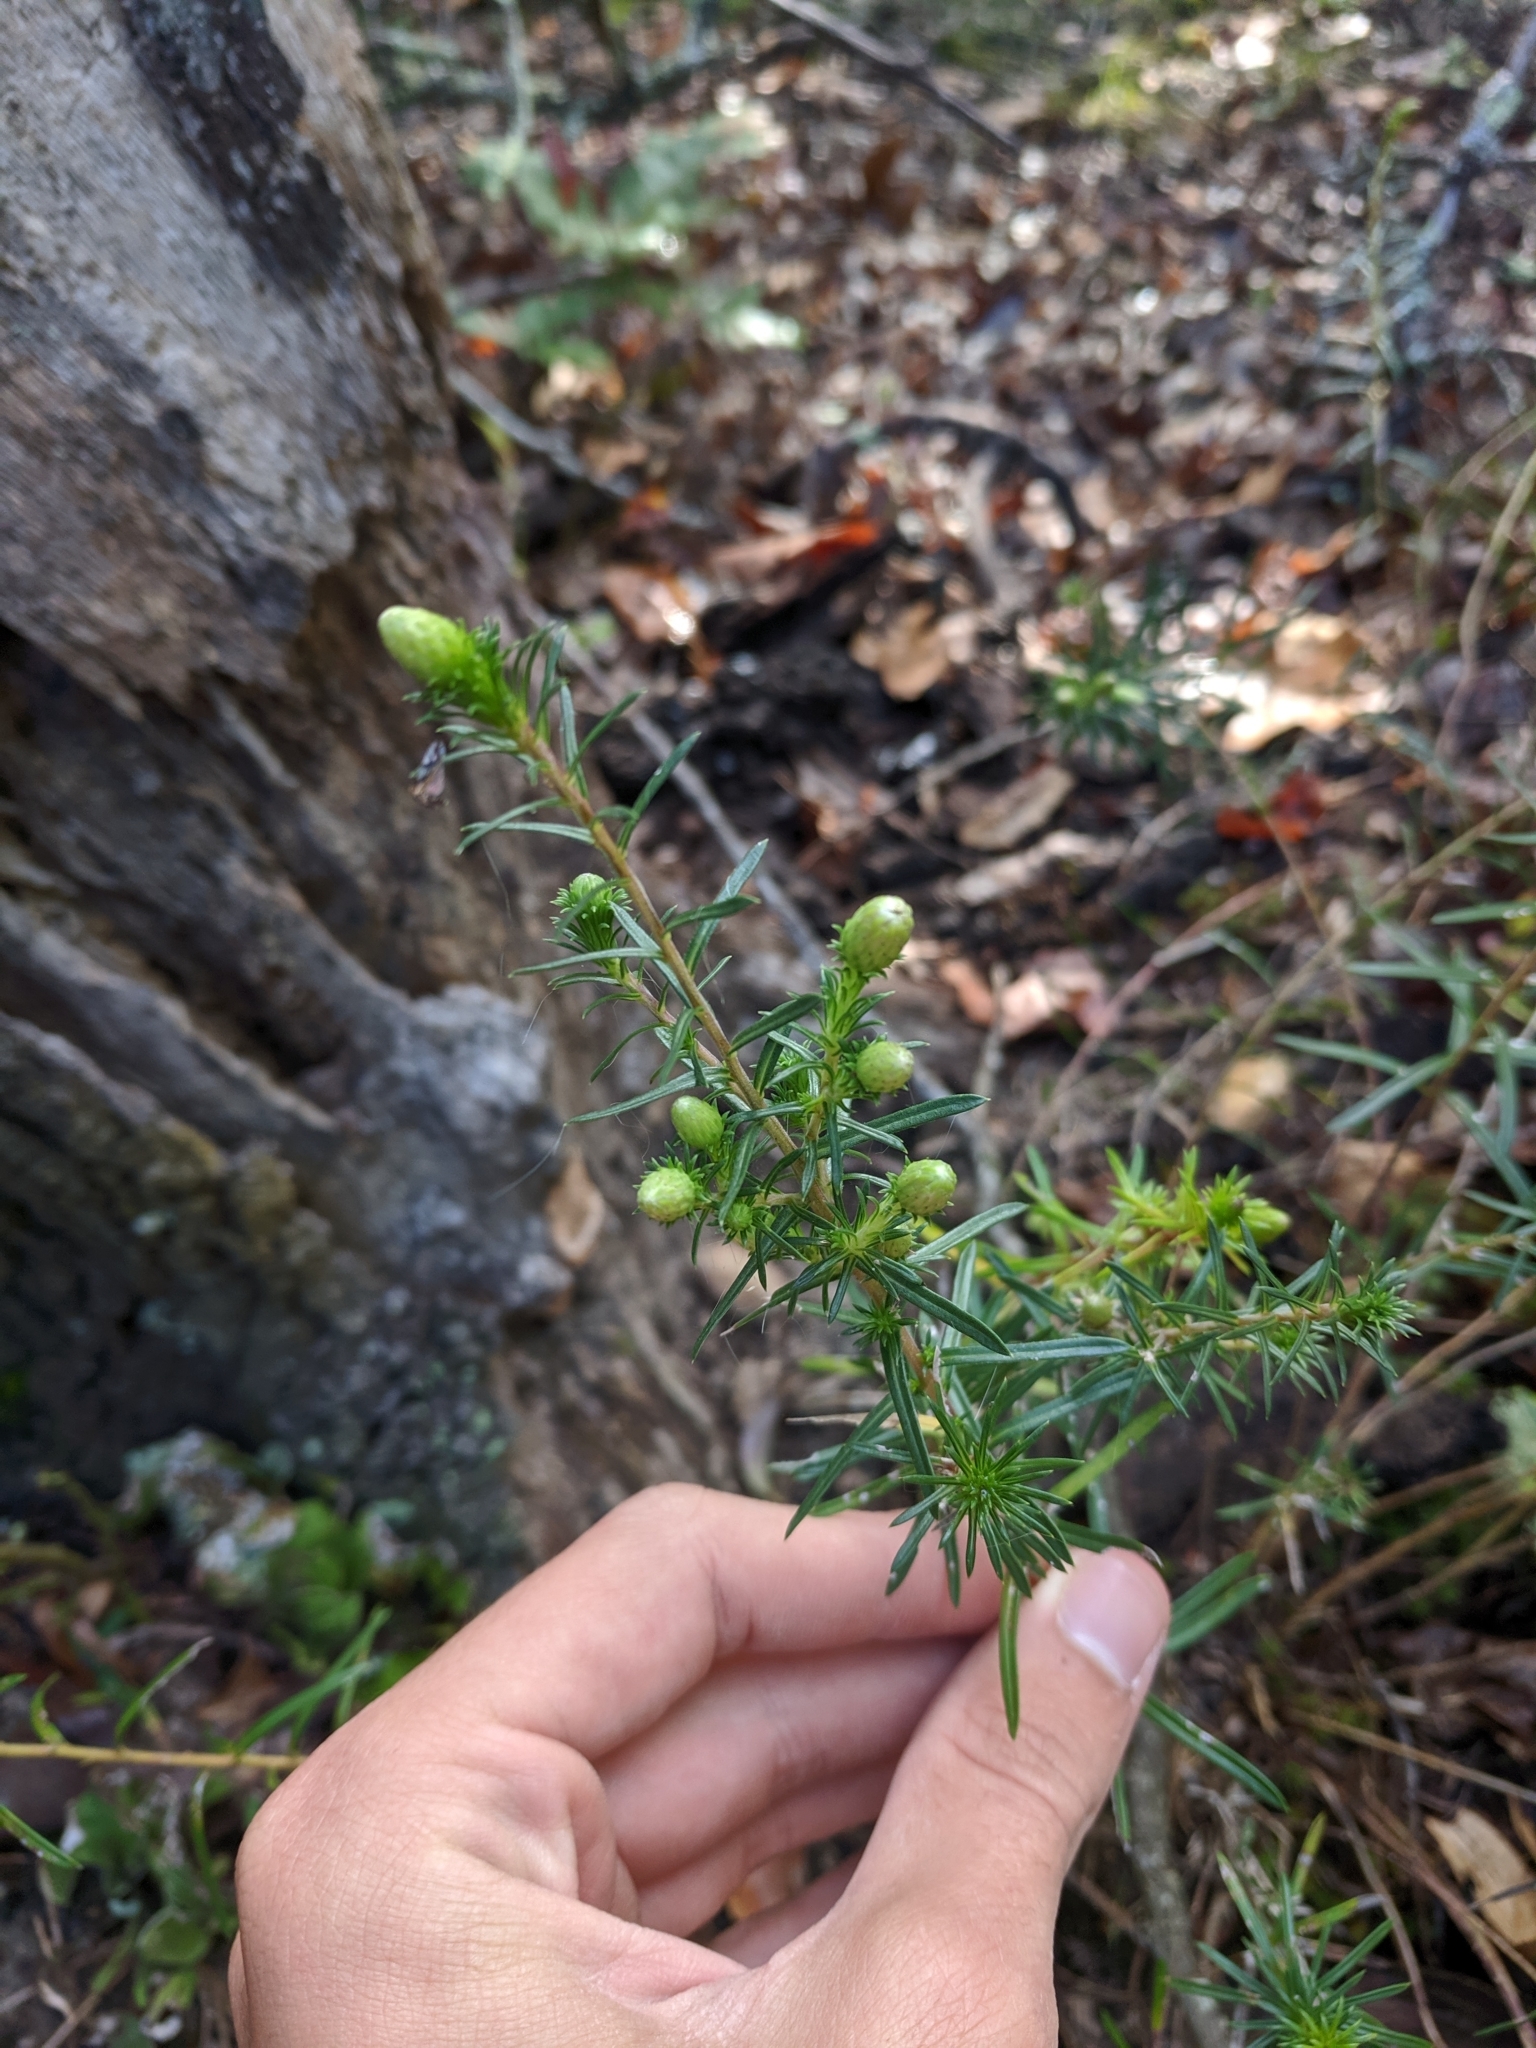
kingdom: Plantae
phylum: Tracheophyta
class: Magnoliopsida
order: Asterales
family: Asteraceae
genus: Ionactis
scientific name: Ionactis linariifolia
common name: Flax-leaf aster
